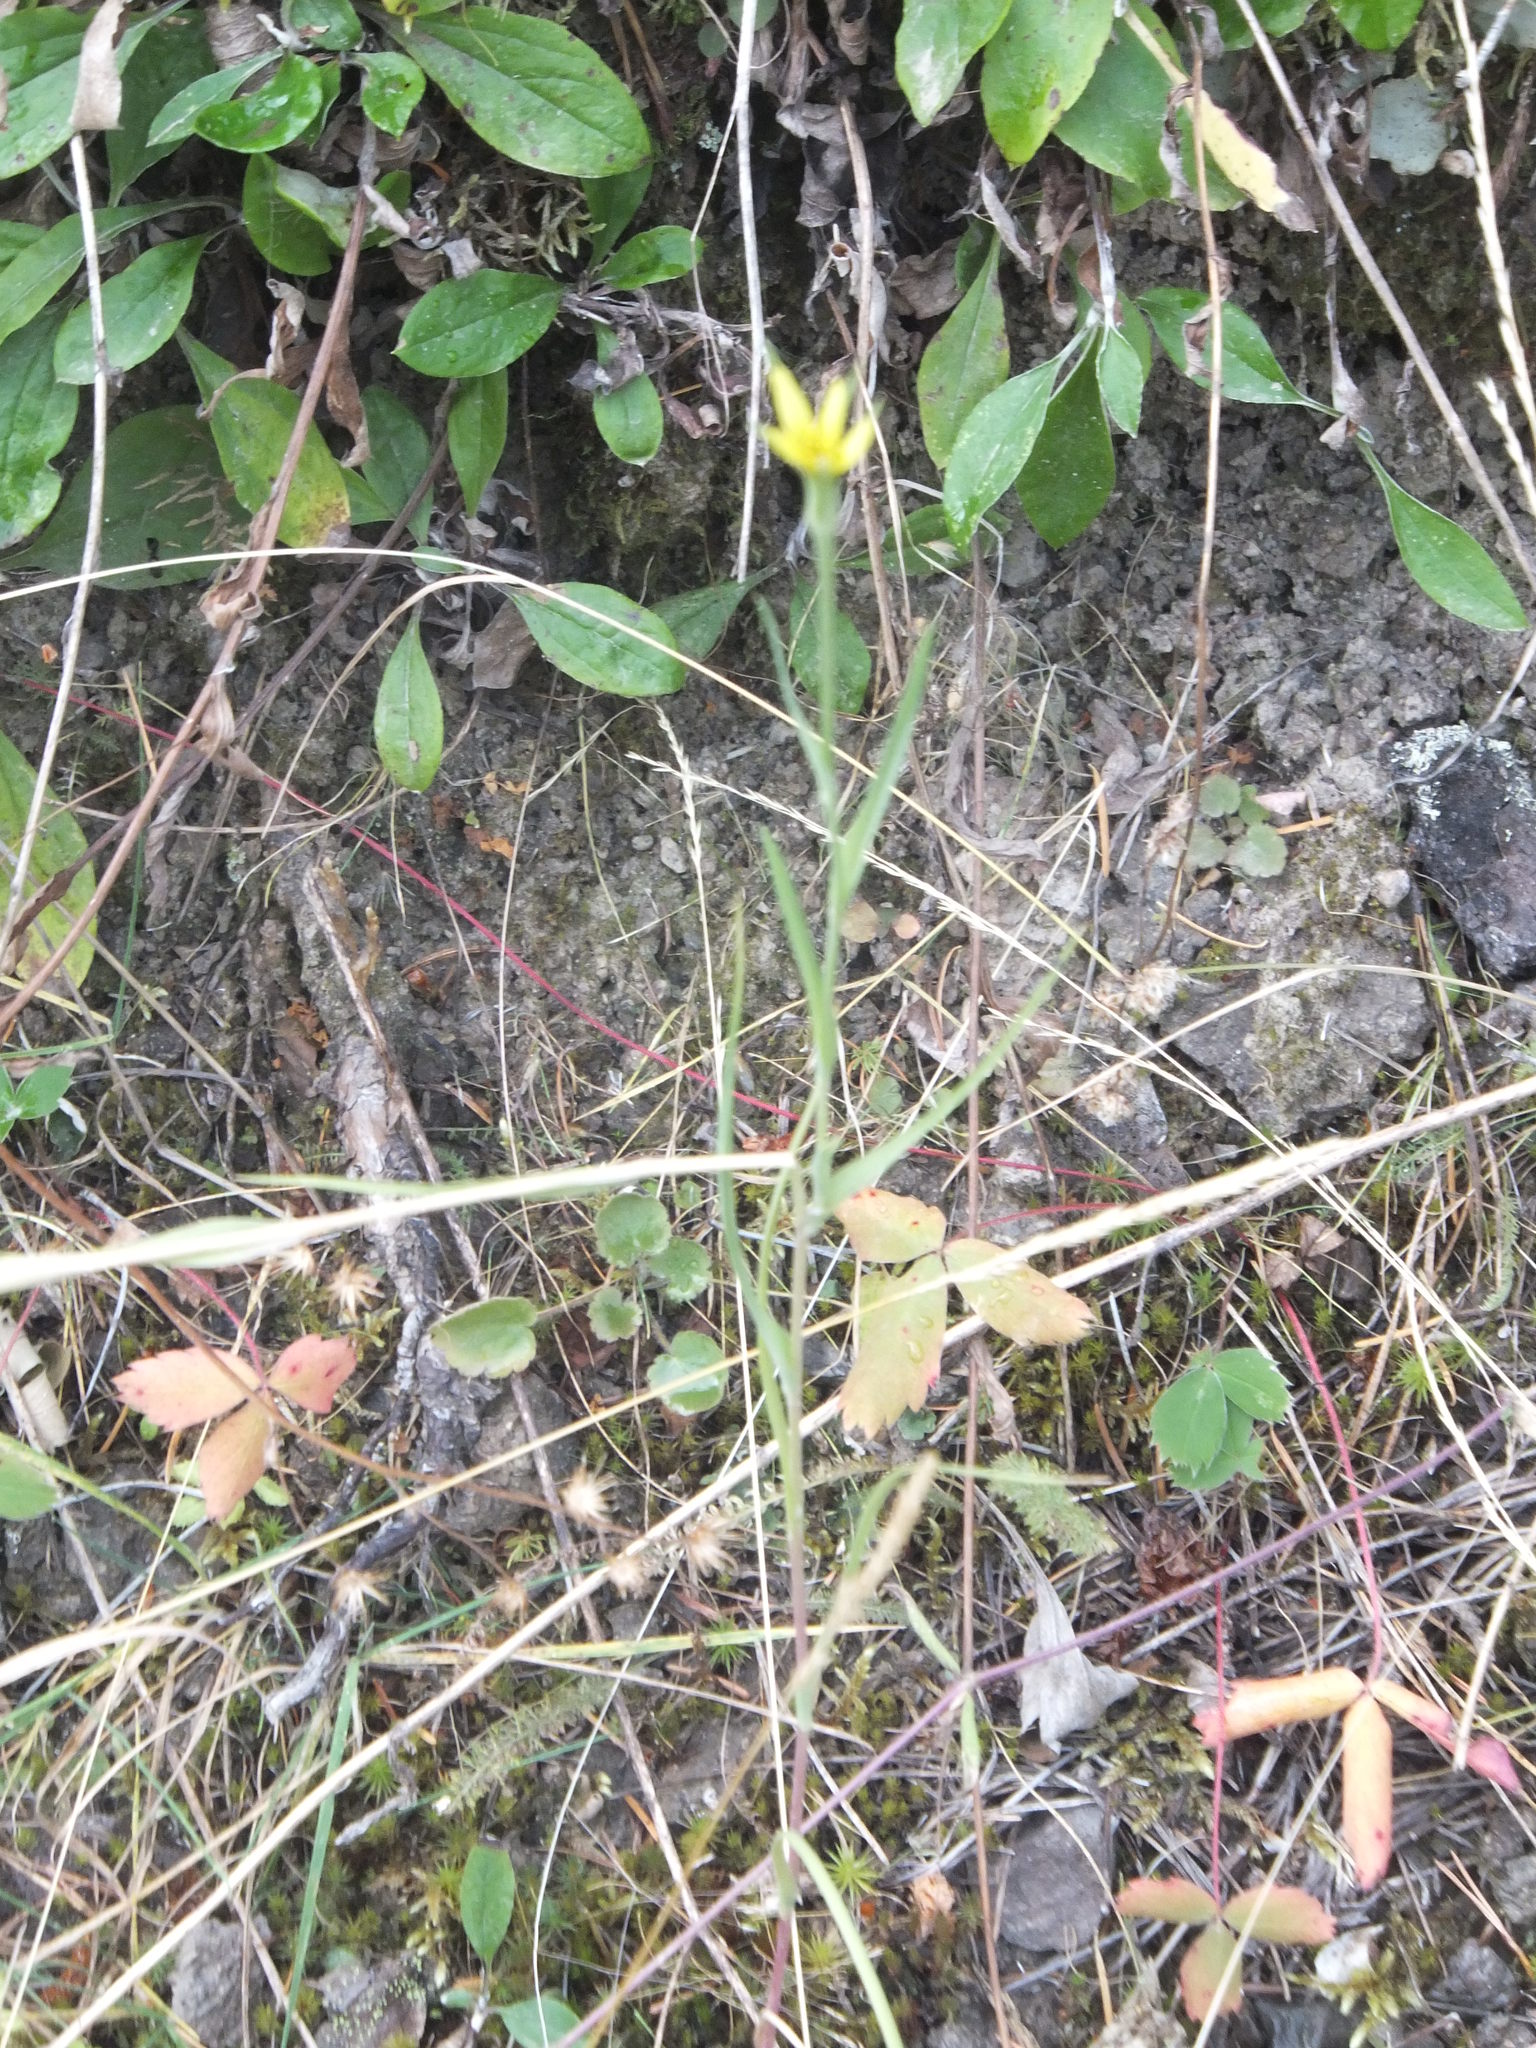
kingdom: Plantae
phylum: Tracheophyta
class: Magnoliopsida
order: Asterales
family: Asteraceae
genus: Tragopogon
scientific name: Tragopogon dubius
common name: Yellow salsify
